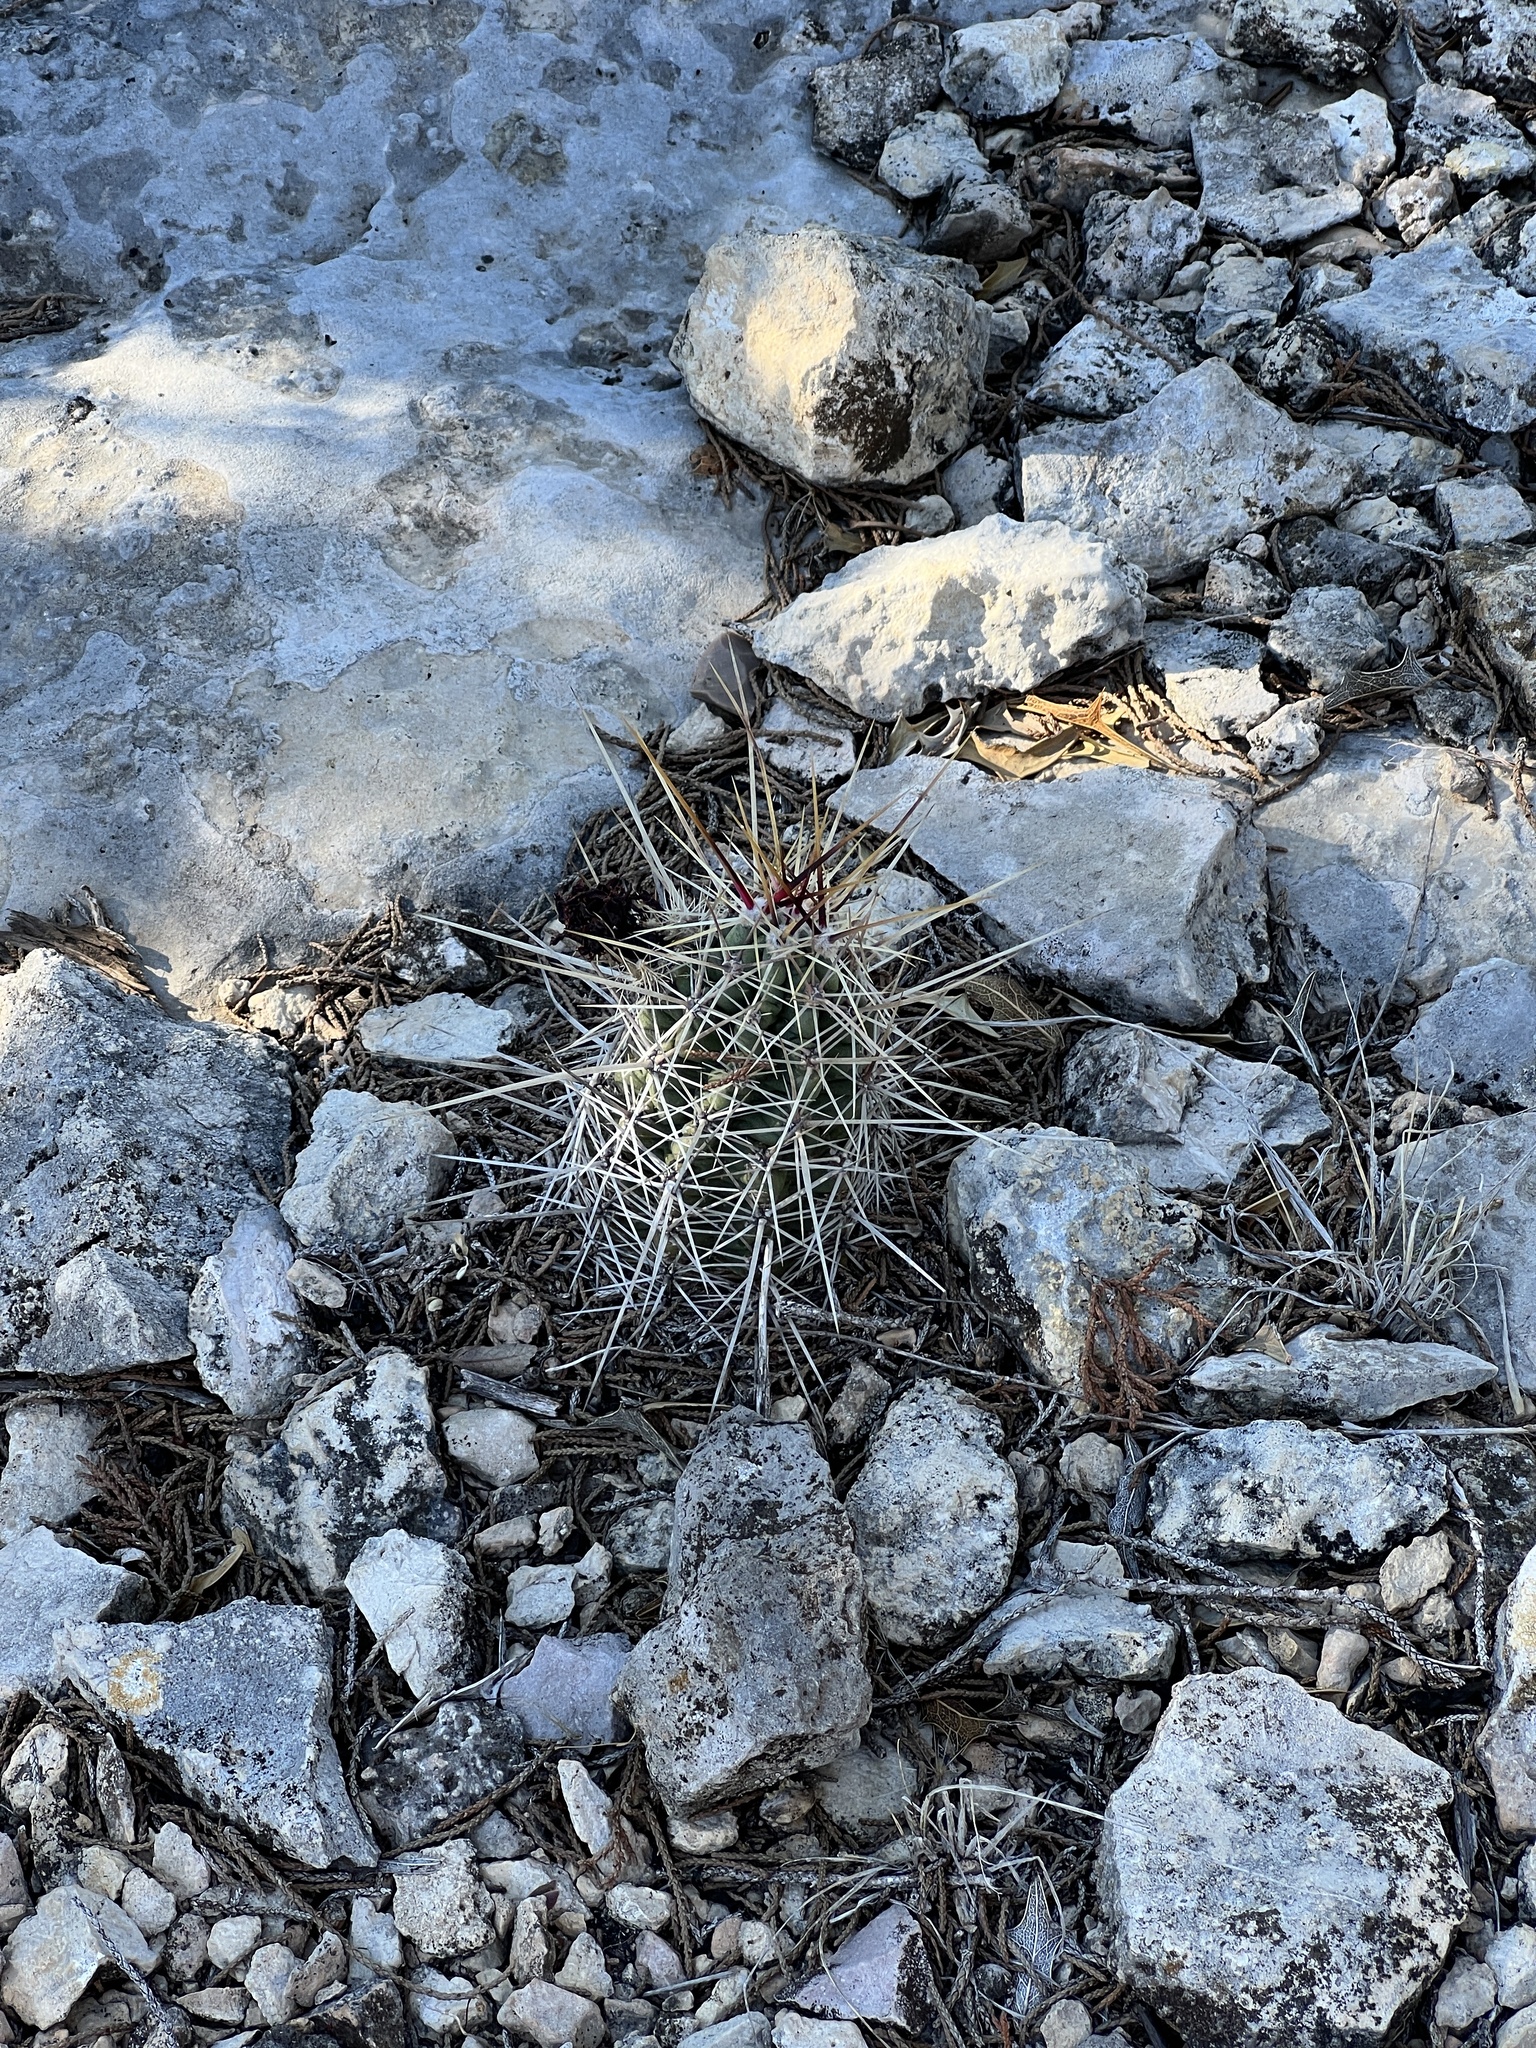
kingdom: Plantae
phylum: Tracheophyta
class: Magnoliopsida
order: Caryophyllales
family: Cactaceae
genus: Echinocereus
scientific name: Echinocereus enneacanthus
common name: Pitaya
